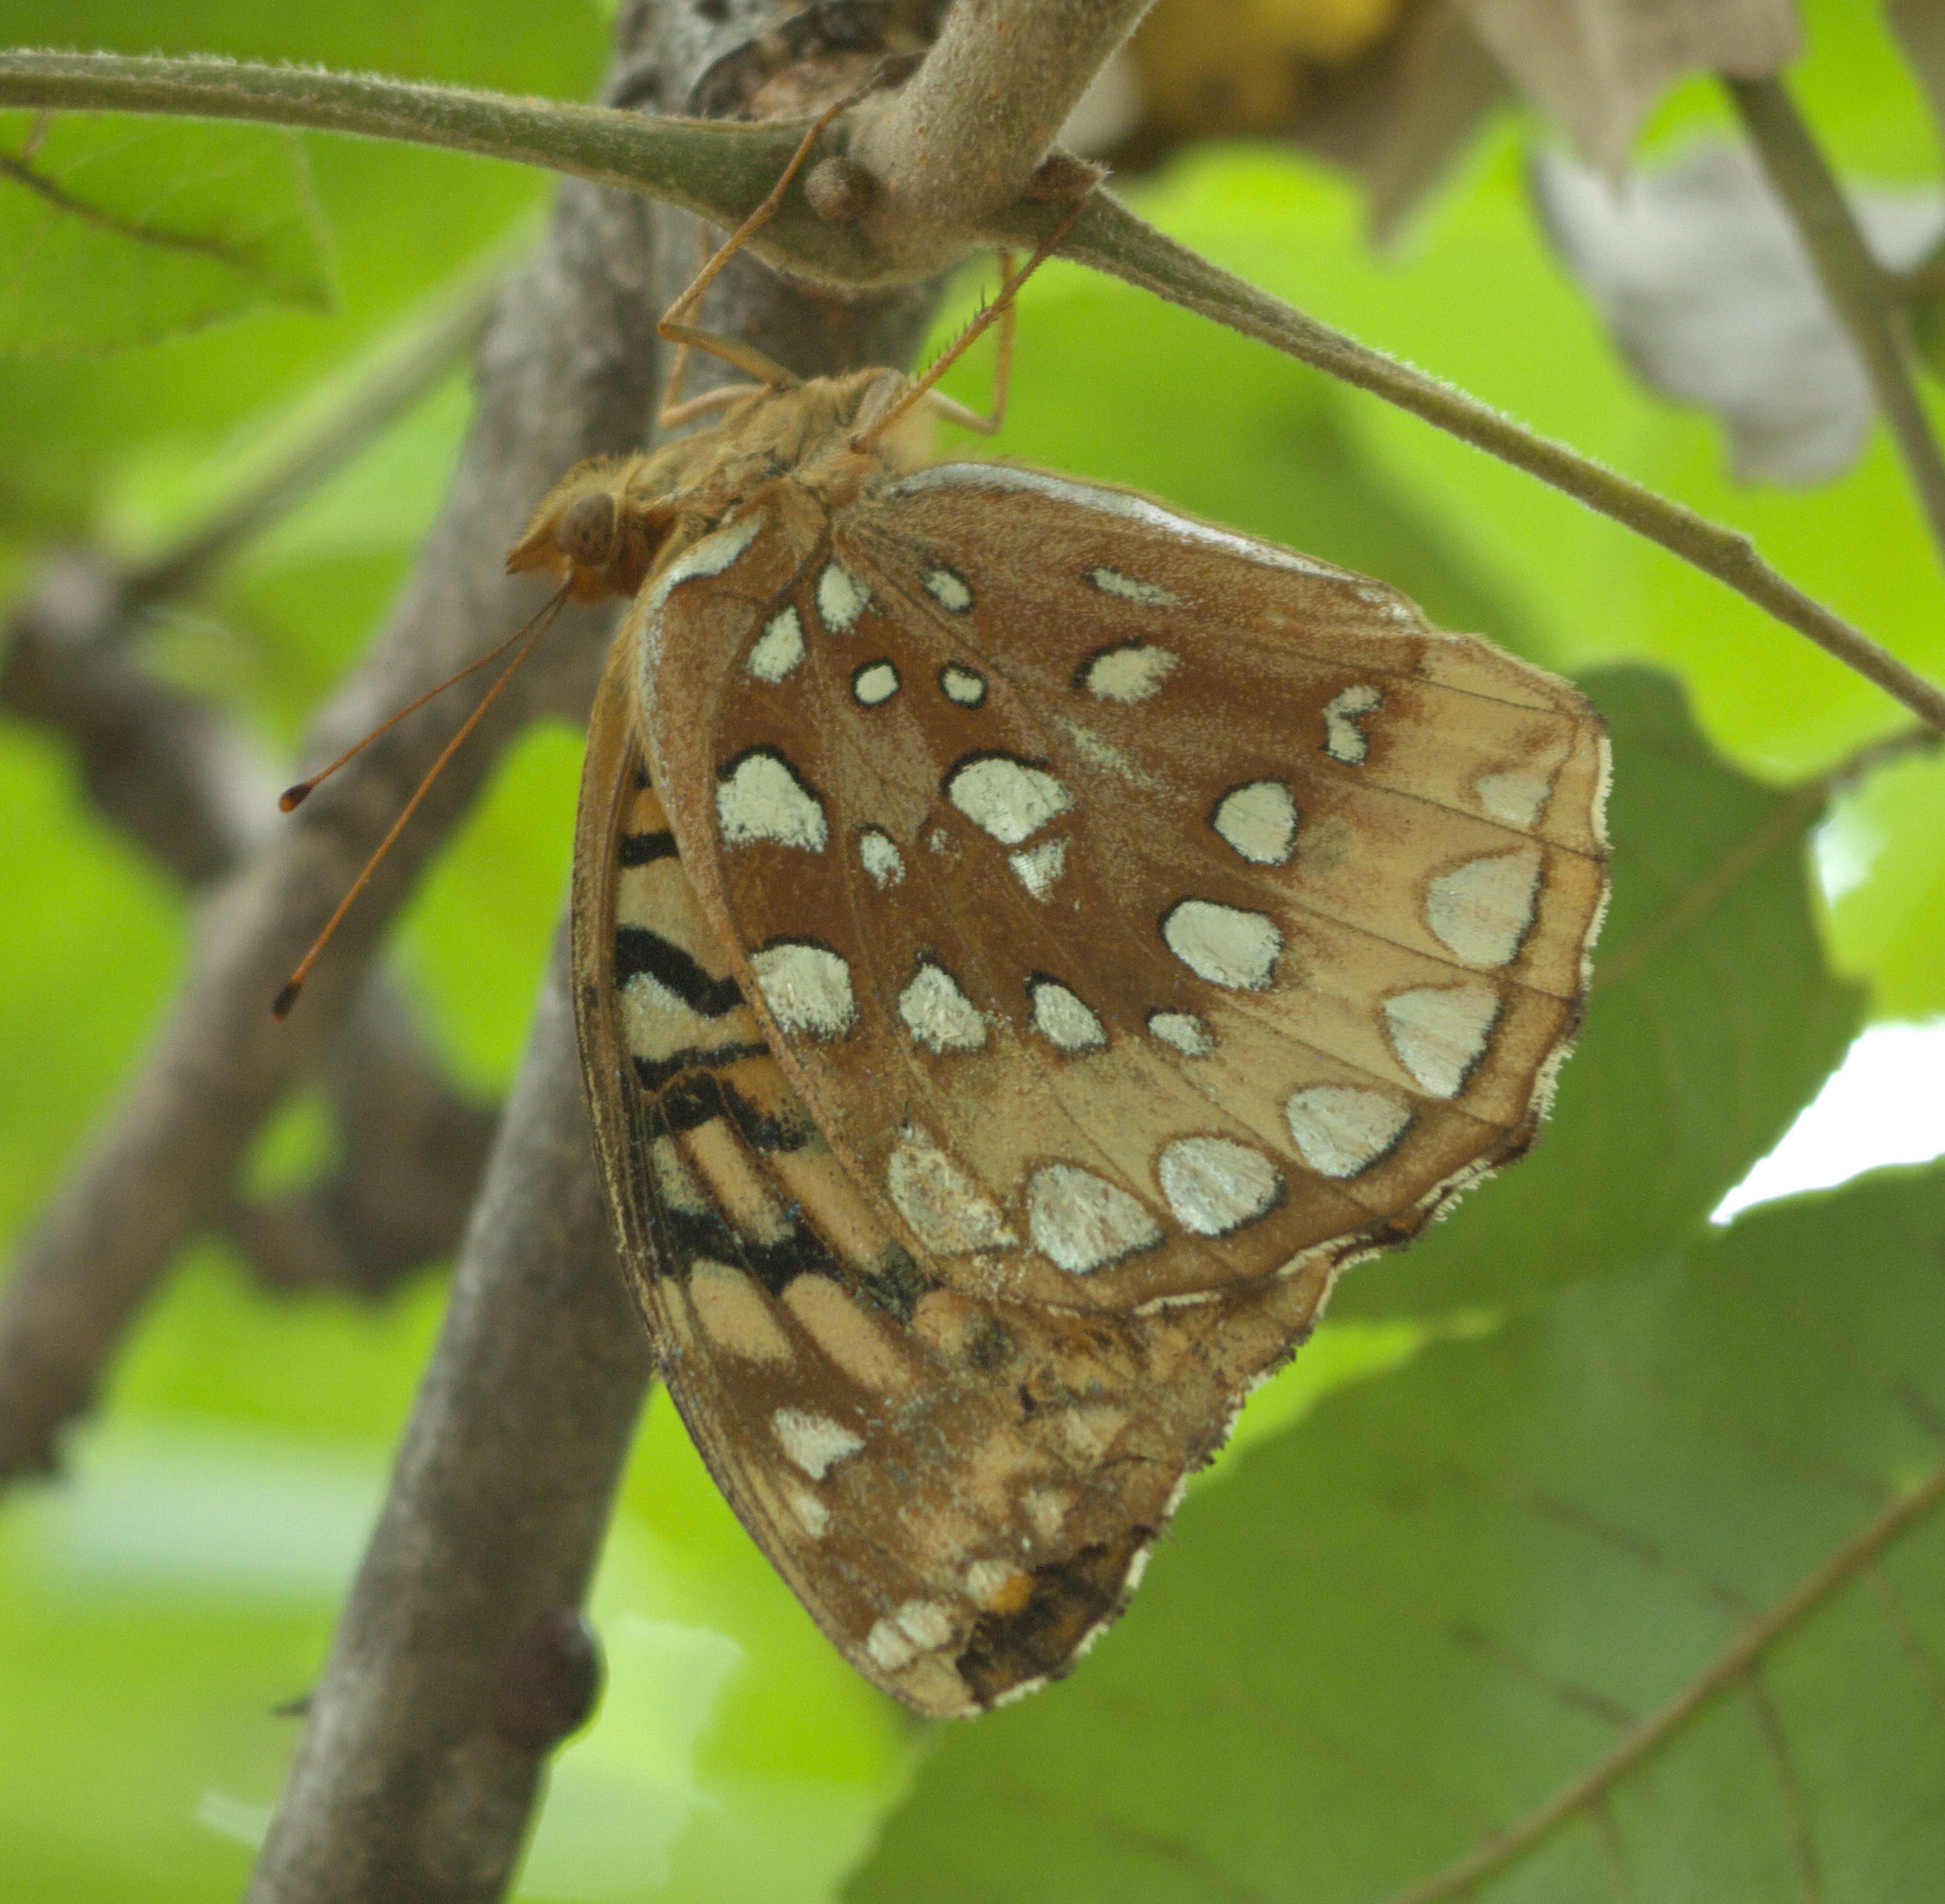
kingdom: Animalia
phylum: Arthropoda
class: Insecta
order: Lepidoptera
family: Nymphalidae
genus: Speyeria
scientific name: Speyeria cybele
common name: Great spangled fritillary
